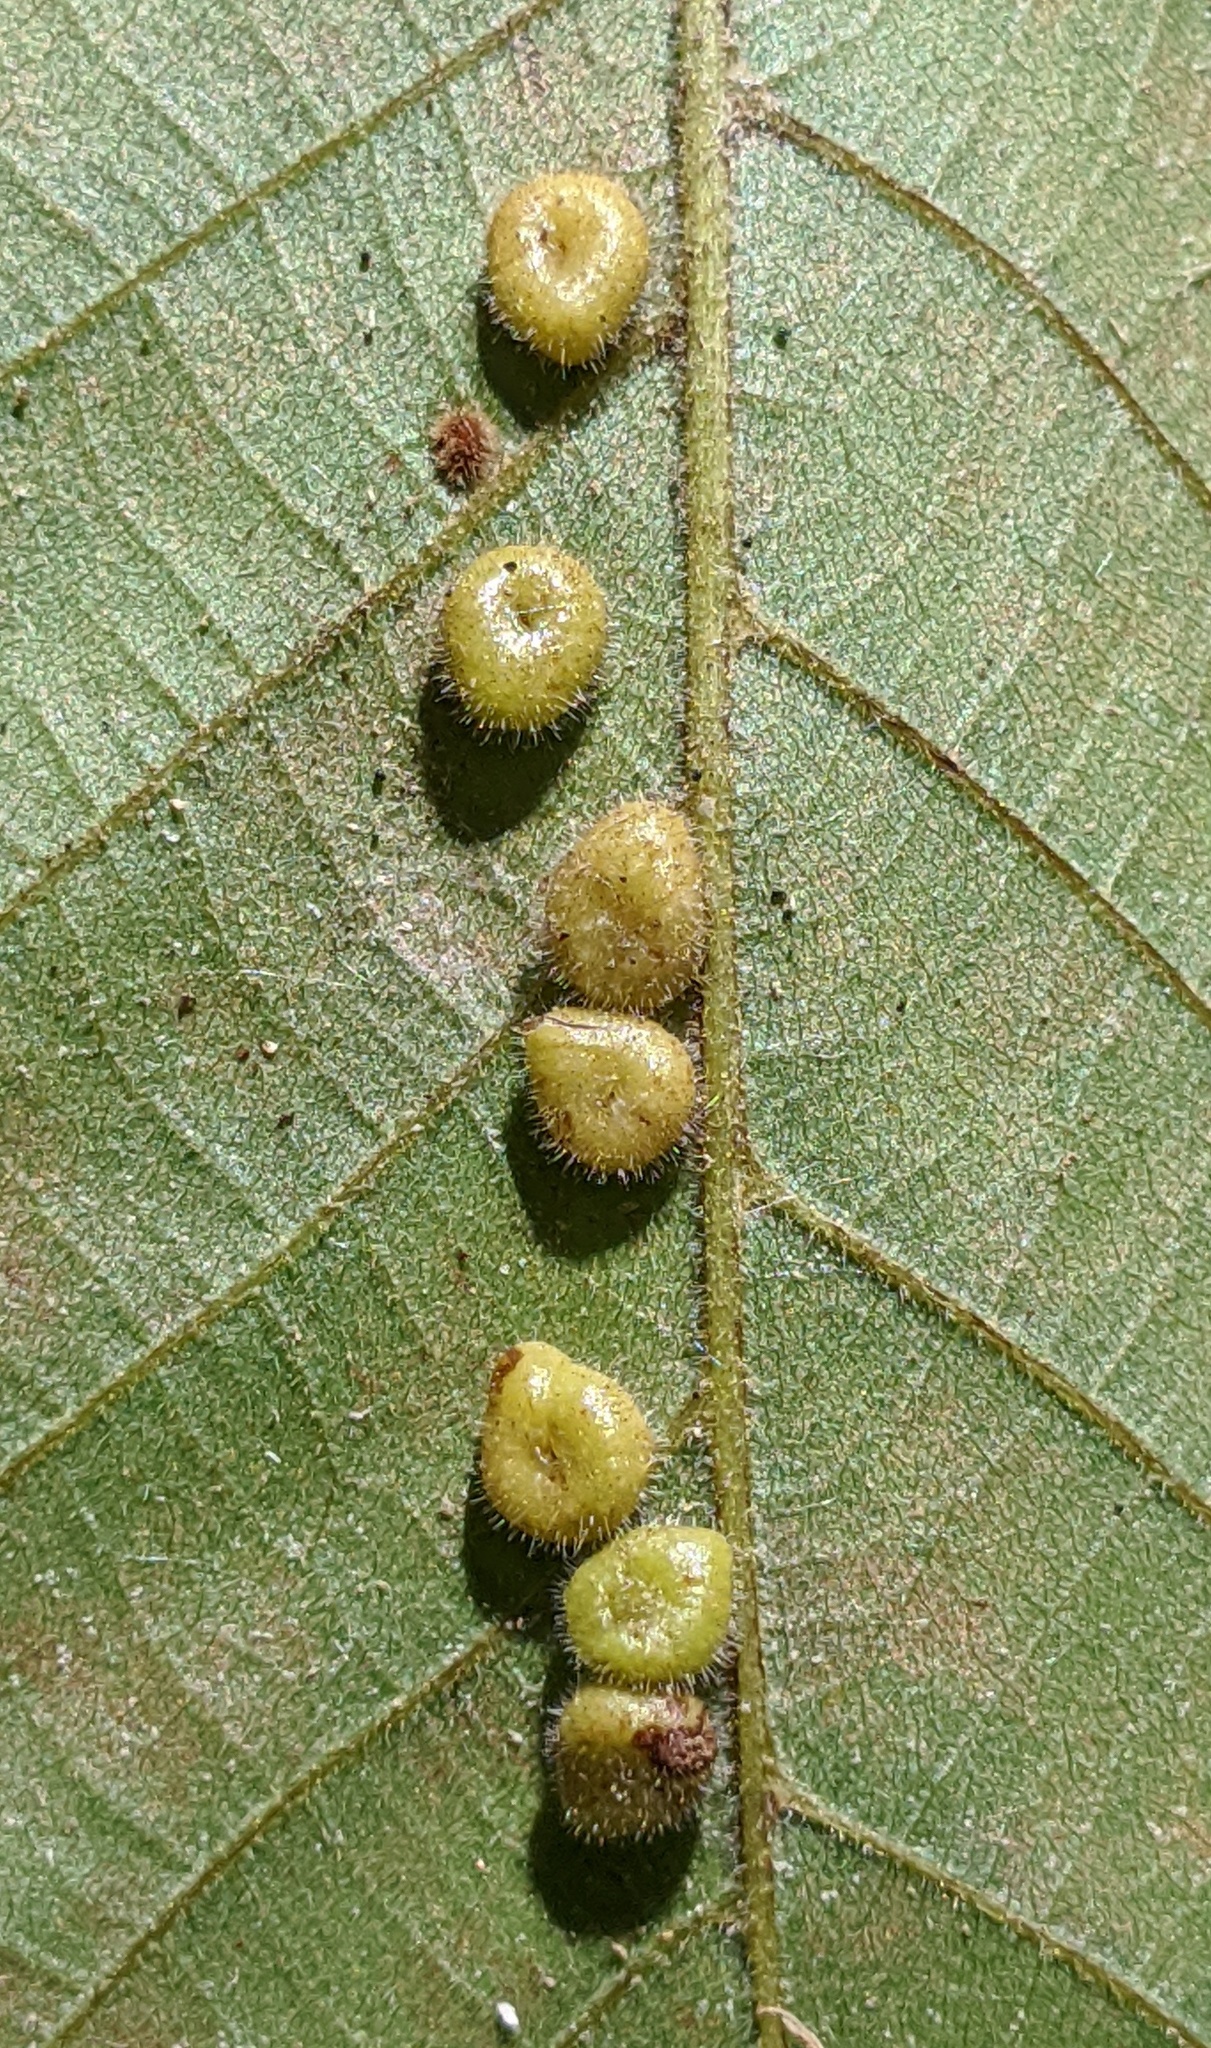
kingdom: Animalia
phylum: Arthropoda
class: Insecta
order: Diptera
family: Cecidomyiidae
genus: Caryomyia
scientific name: Caryomyia thompsoni
